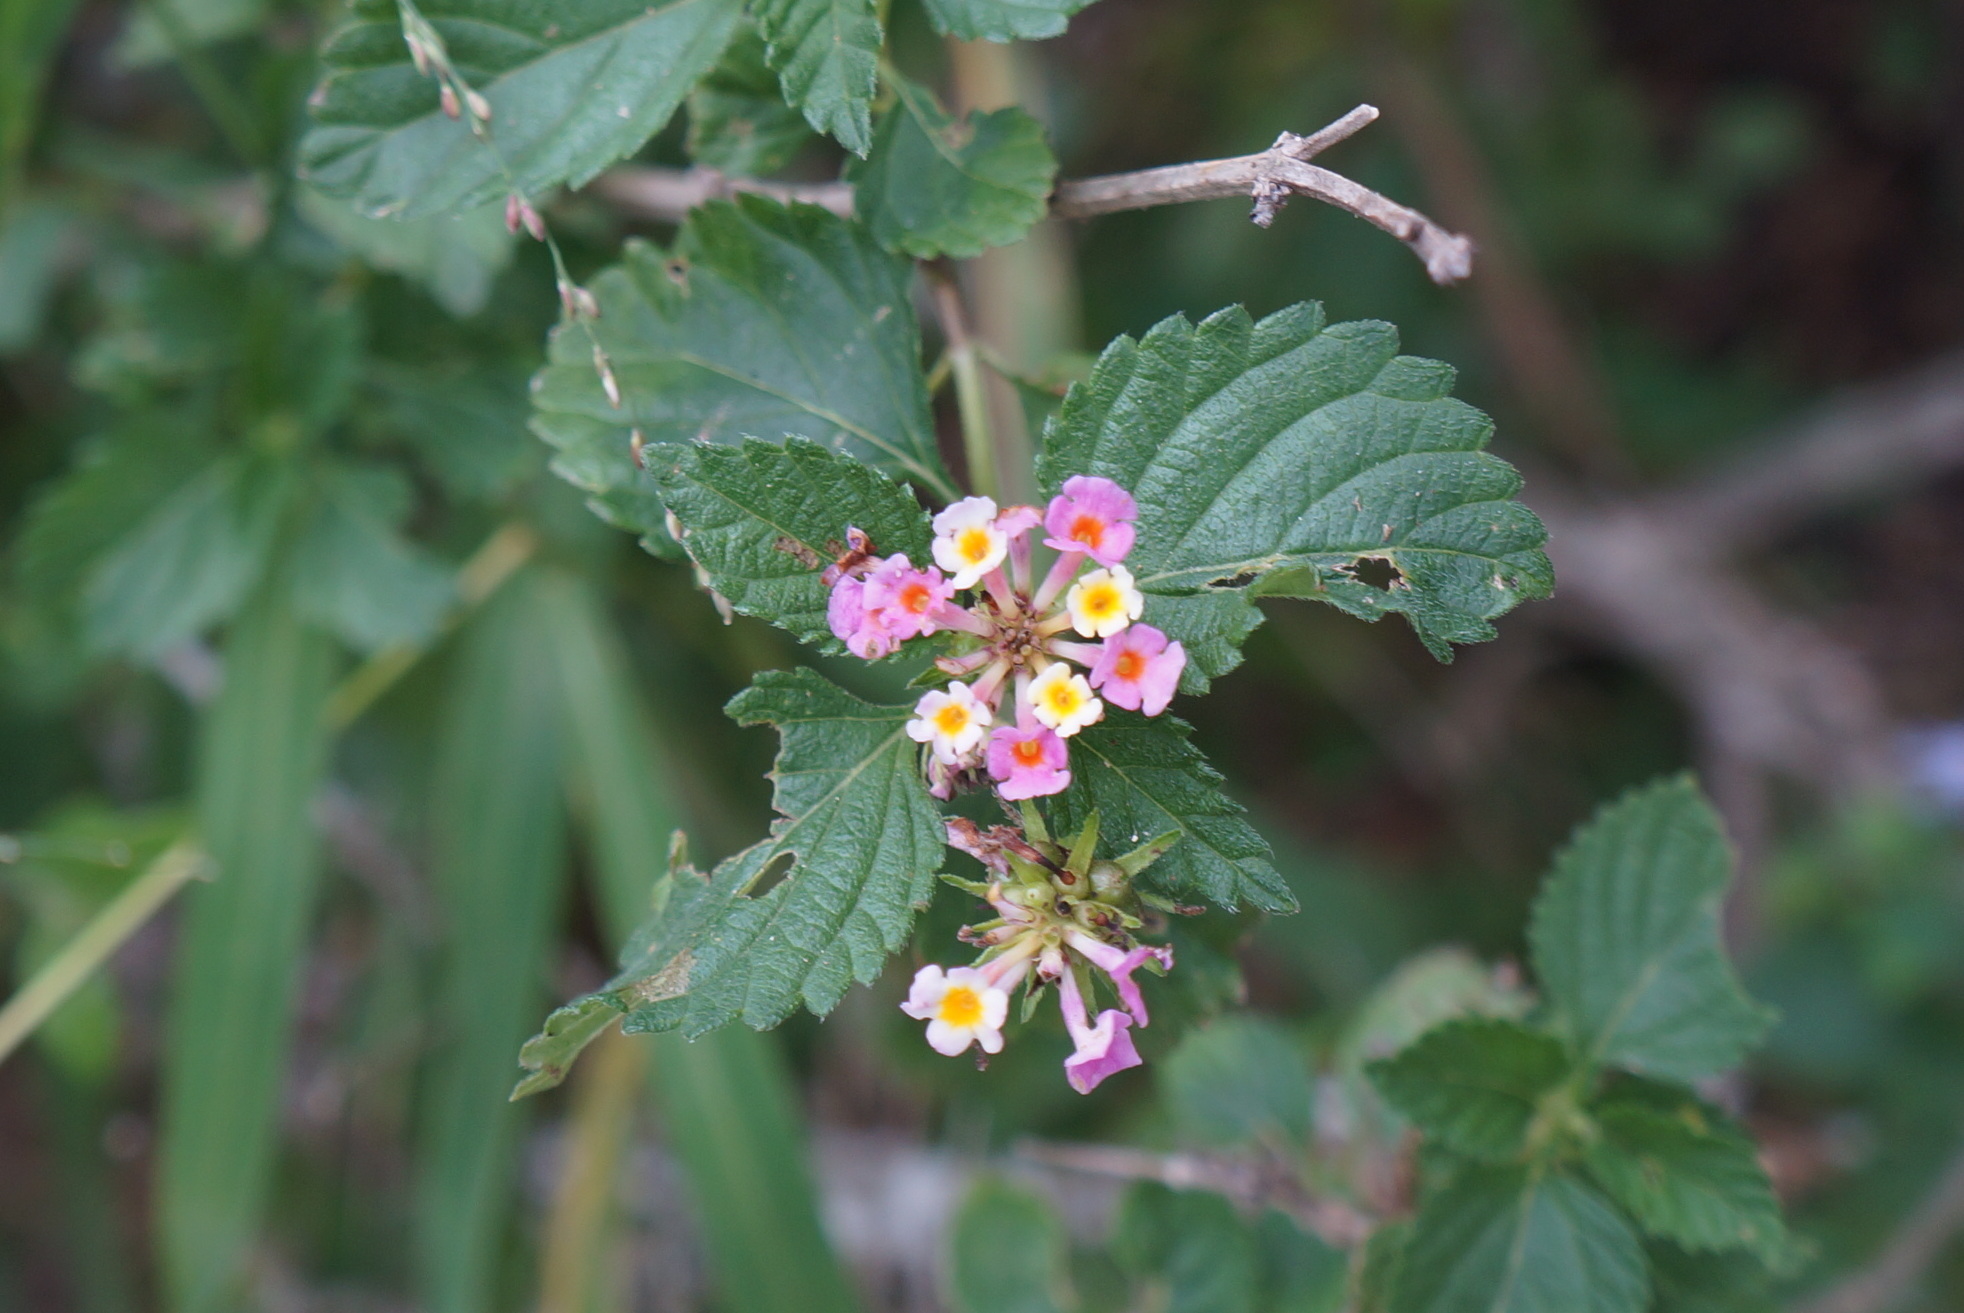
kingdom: Plantae
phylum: Tracheophyta
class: Magnoliopsida
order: Lamiales
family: Verbenaceae
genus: Lantana
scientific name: Lantana strigocamara
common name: Lantana
